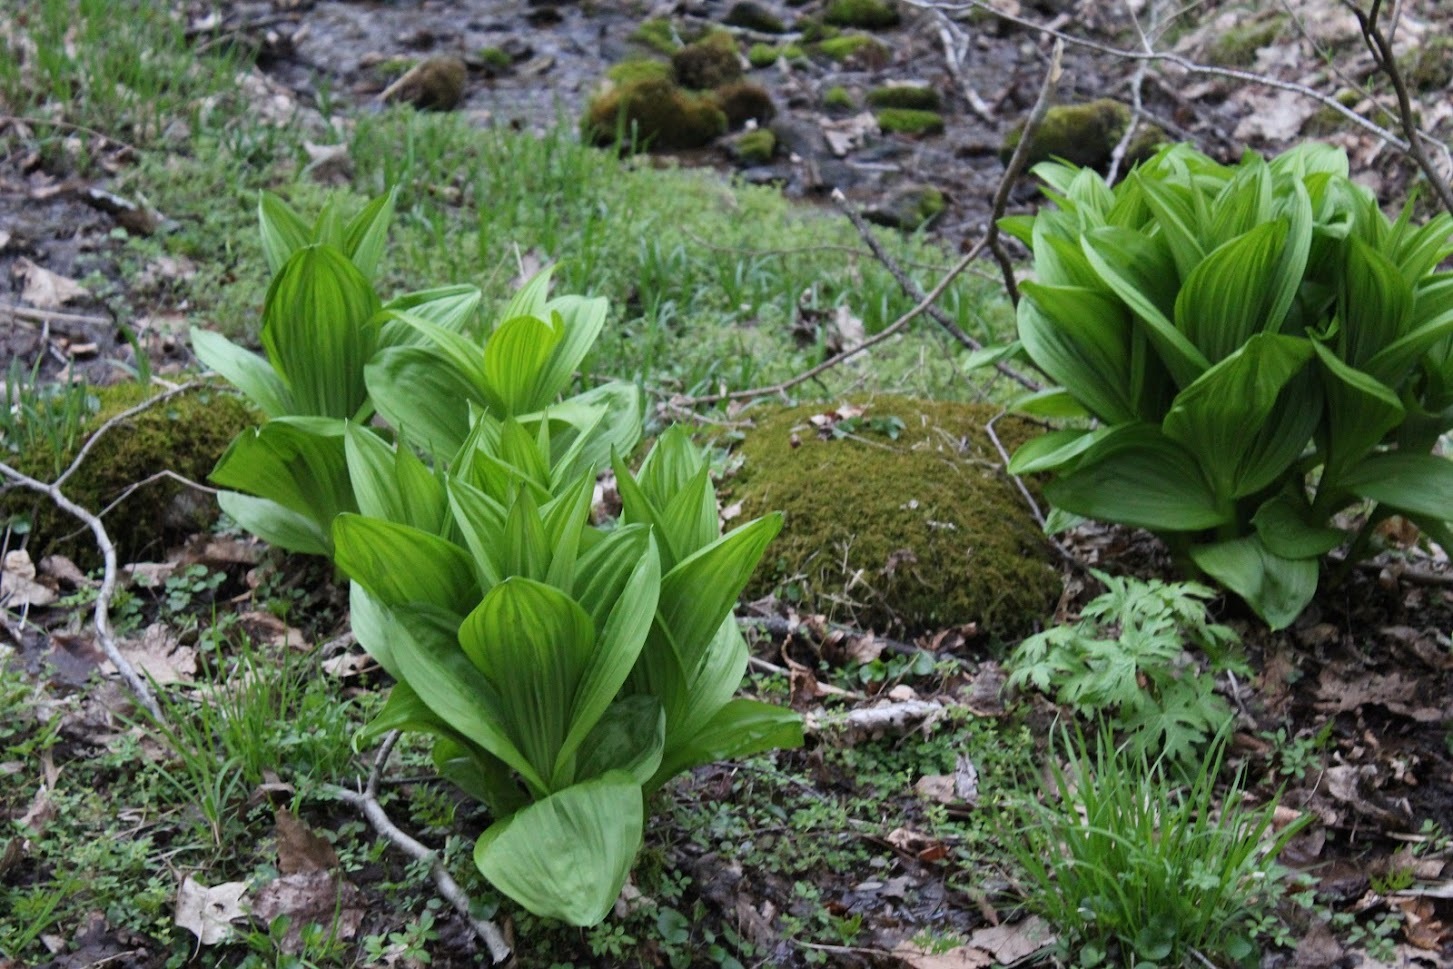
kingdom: Plantae
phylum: Tracheophyta
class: Liliopsida
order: Liliales
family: Melanthiaceae
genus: Veratrum
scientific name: Veratrum viride
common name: American false hellebore
